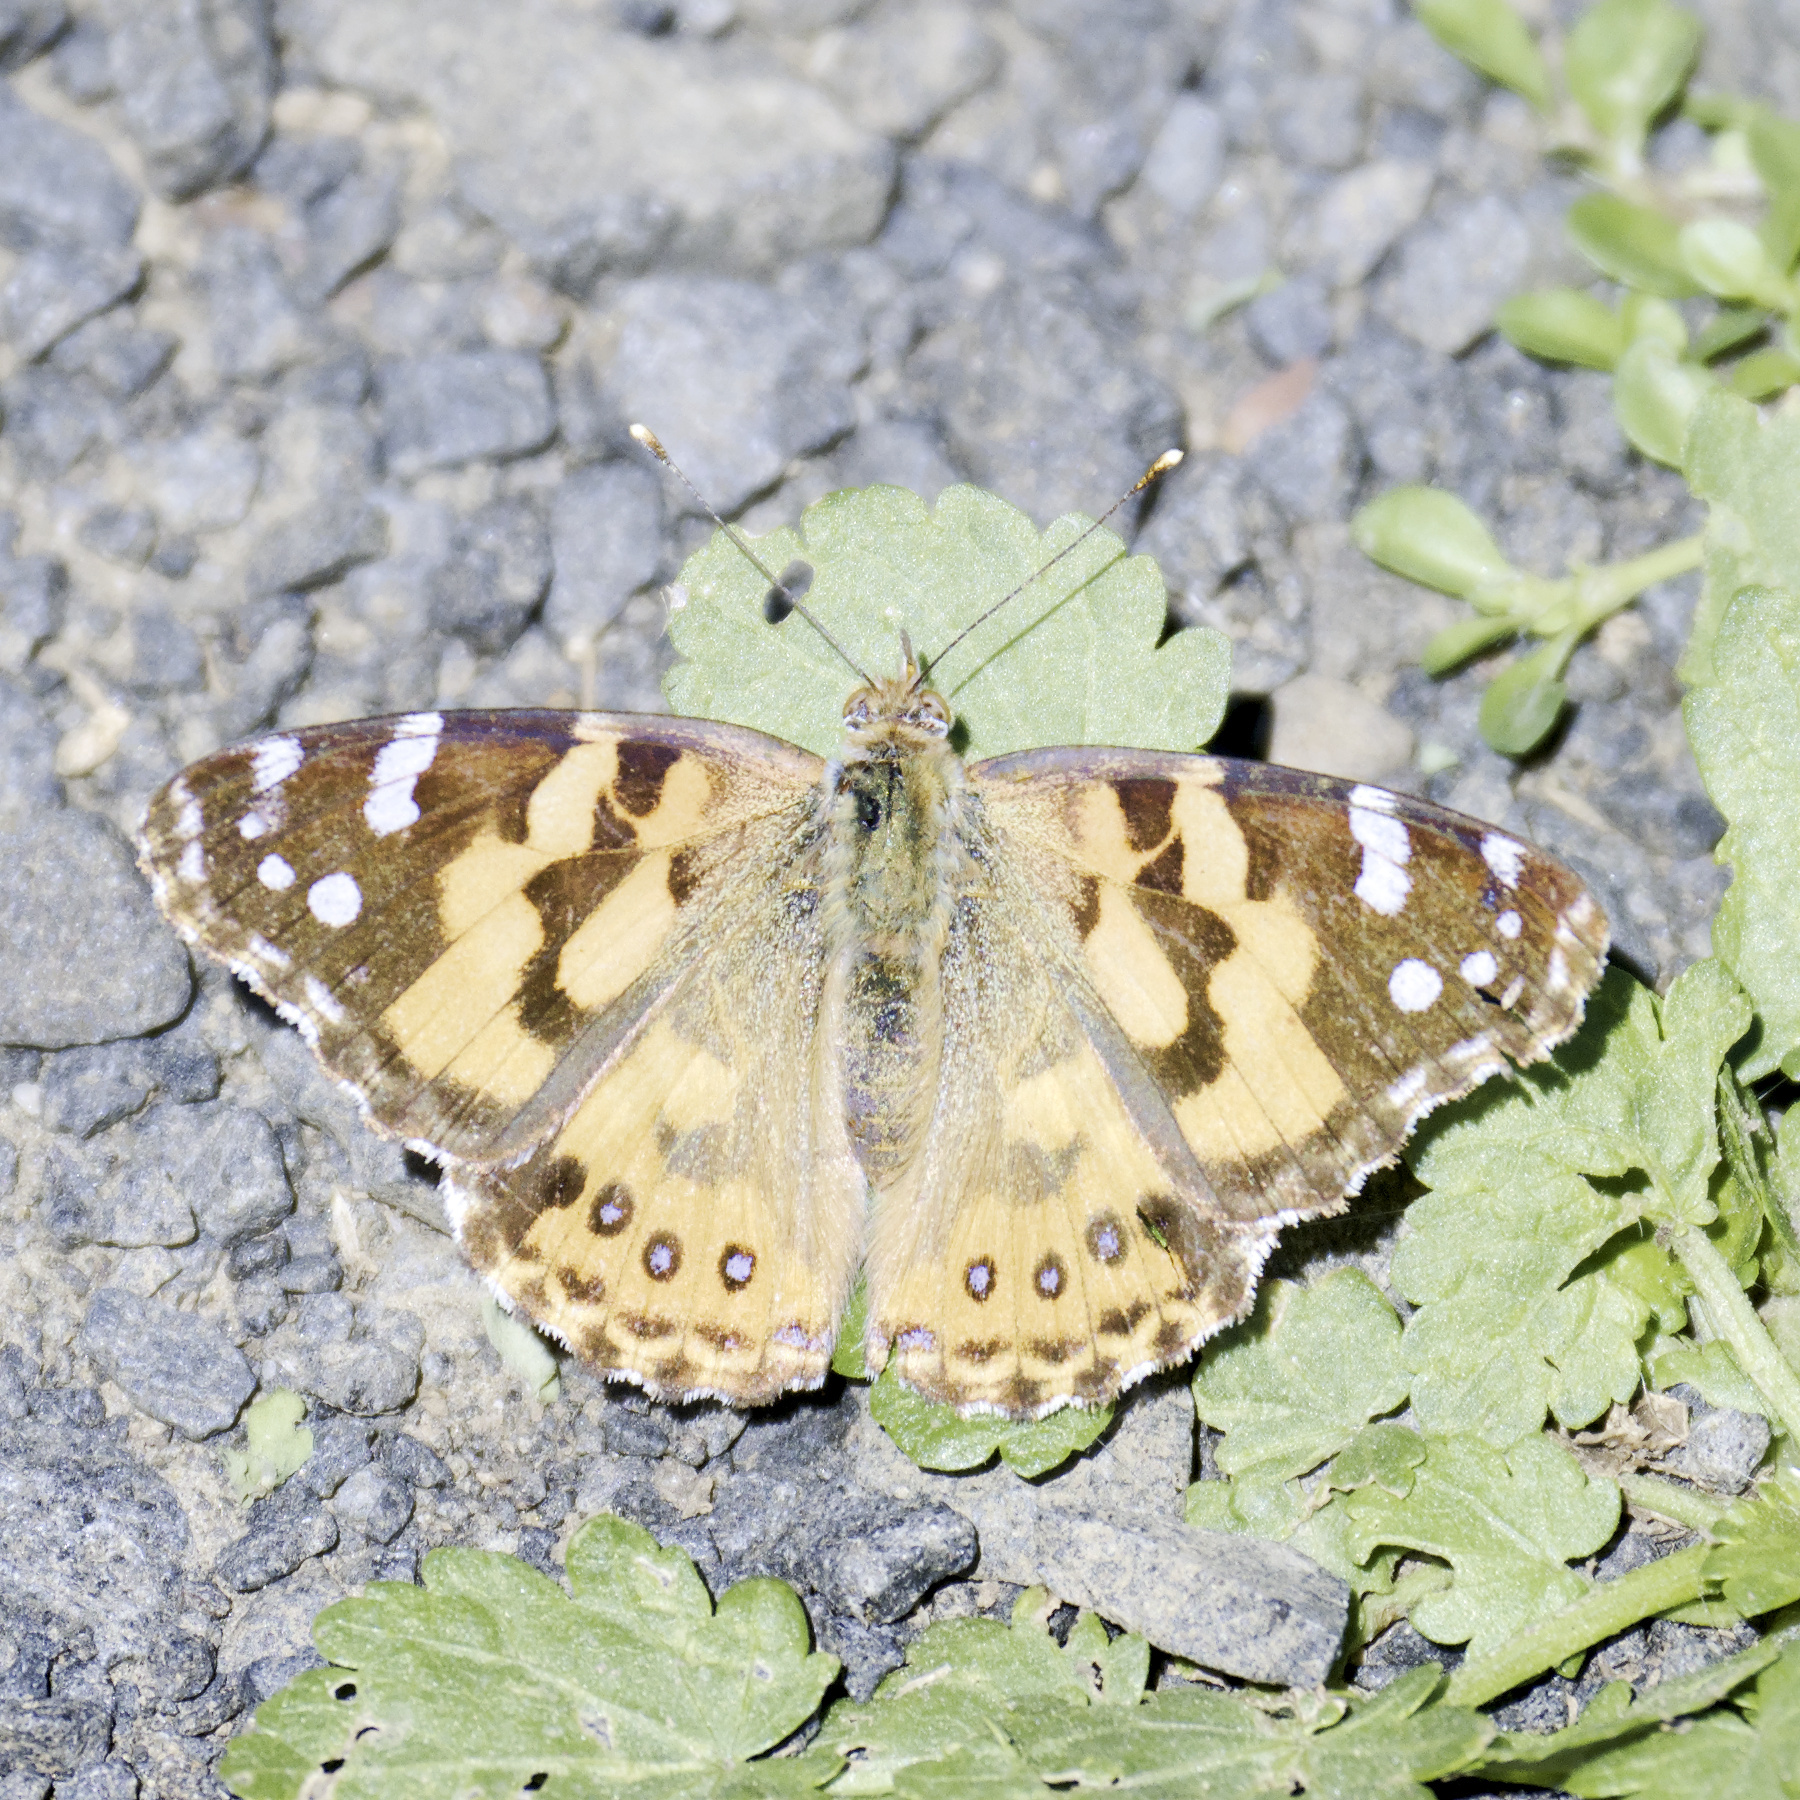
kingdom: Animalia
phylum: Arthropoda
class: Insecta
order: Lepidoptera
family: Nymphalidae
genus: Vanessa
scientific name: Vanessa kershawi
